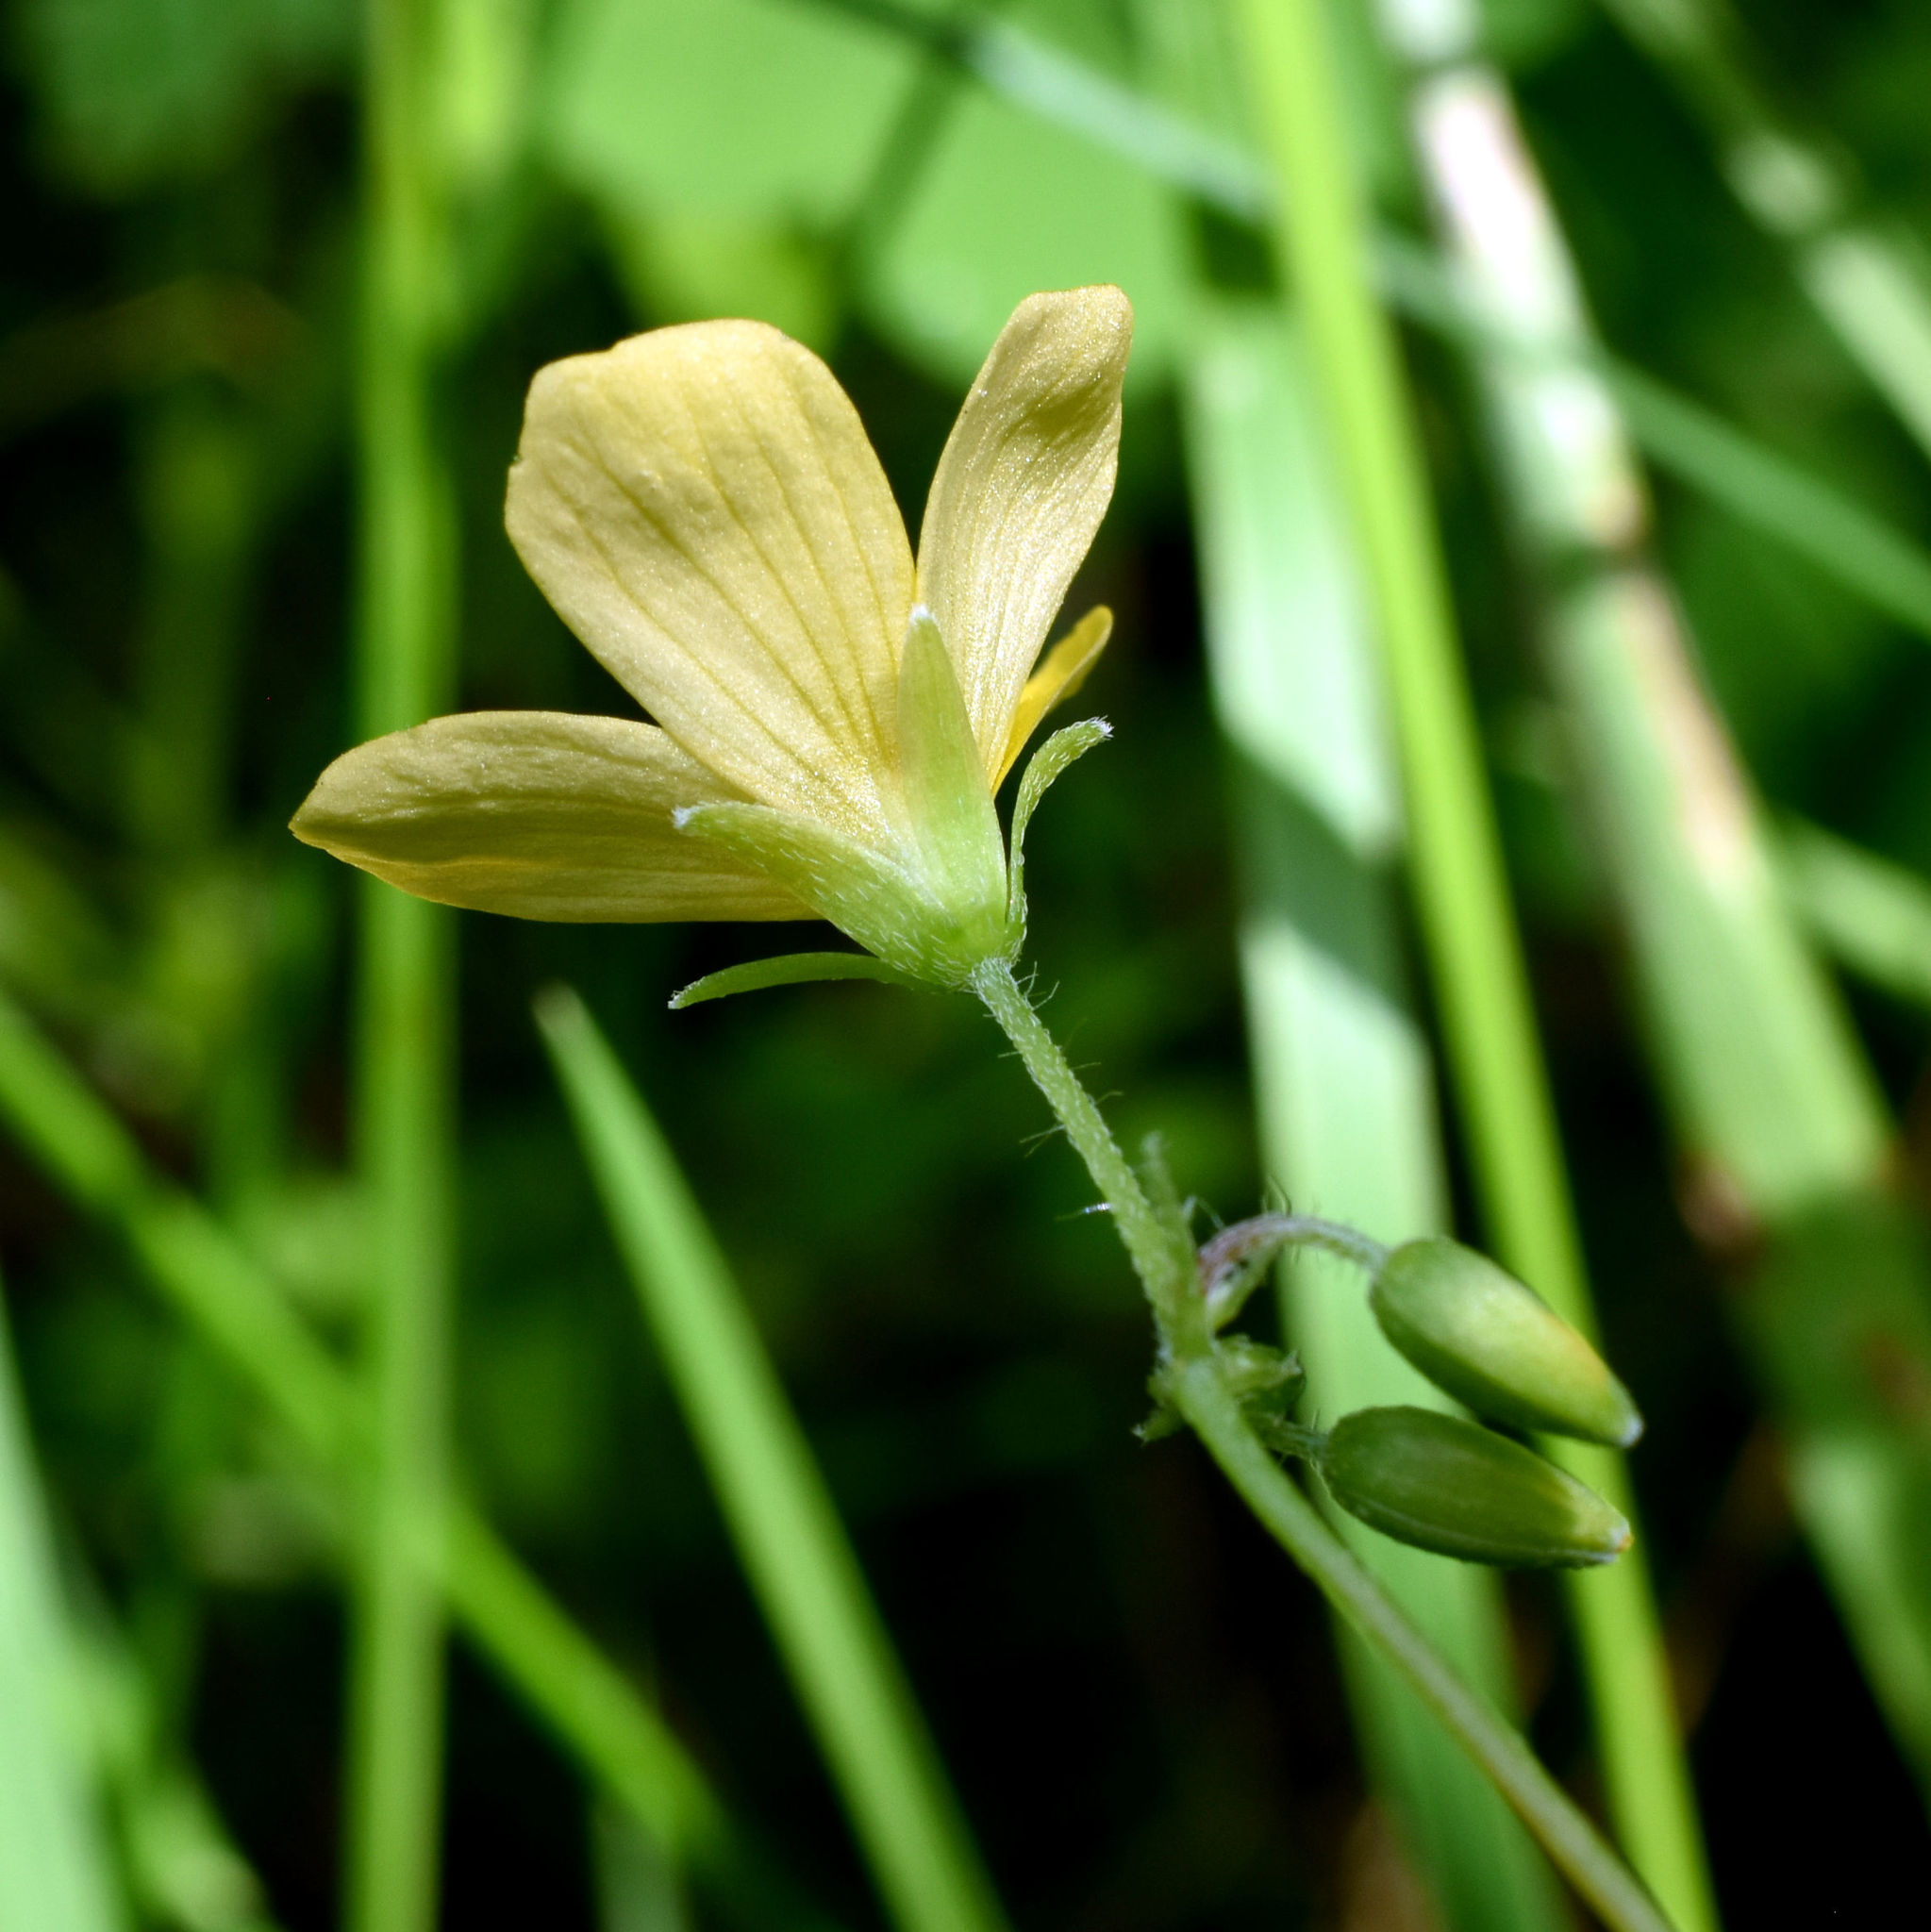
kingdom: Plantae
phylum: Tracheophyta
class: Magnoliopsida
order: Oxalidales
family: Oxalidaceae
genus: Oxalis
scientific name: Oxalis stricta
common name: Upright yellow-sorrel
